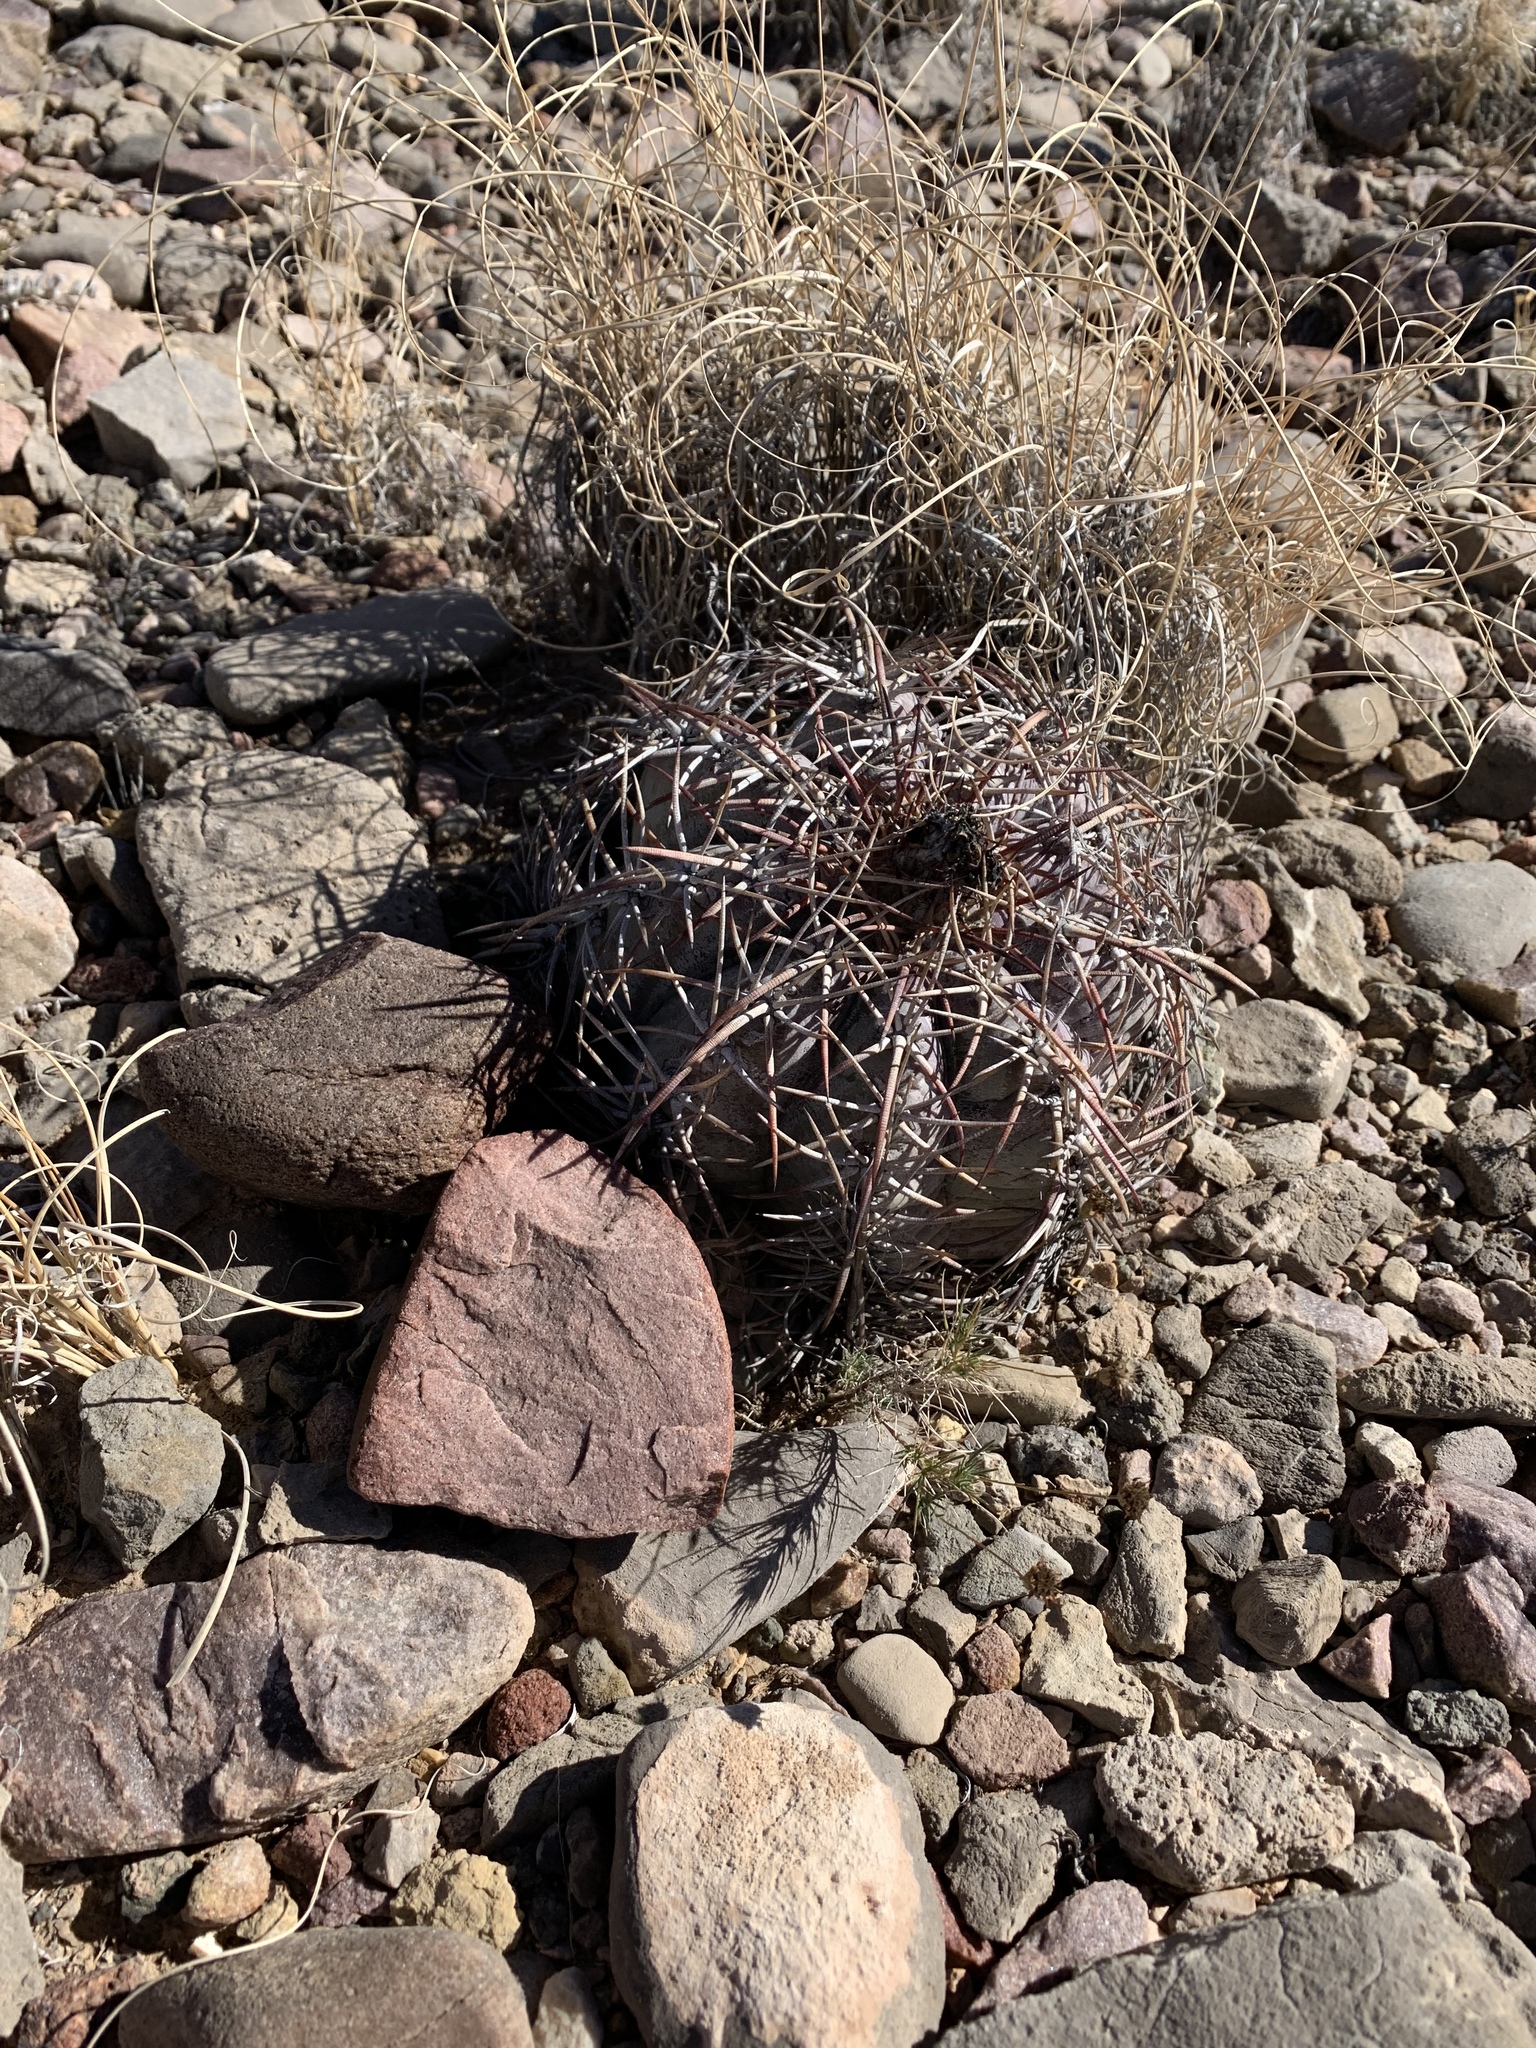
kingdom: Plantae
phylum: Tracheophyta
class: Magnoliopsida
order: Caryophyllales
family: Cactaceae
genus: Echinocactus
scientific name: Echinocactus horizonthalonius
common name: Devilshead
